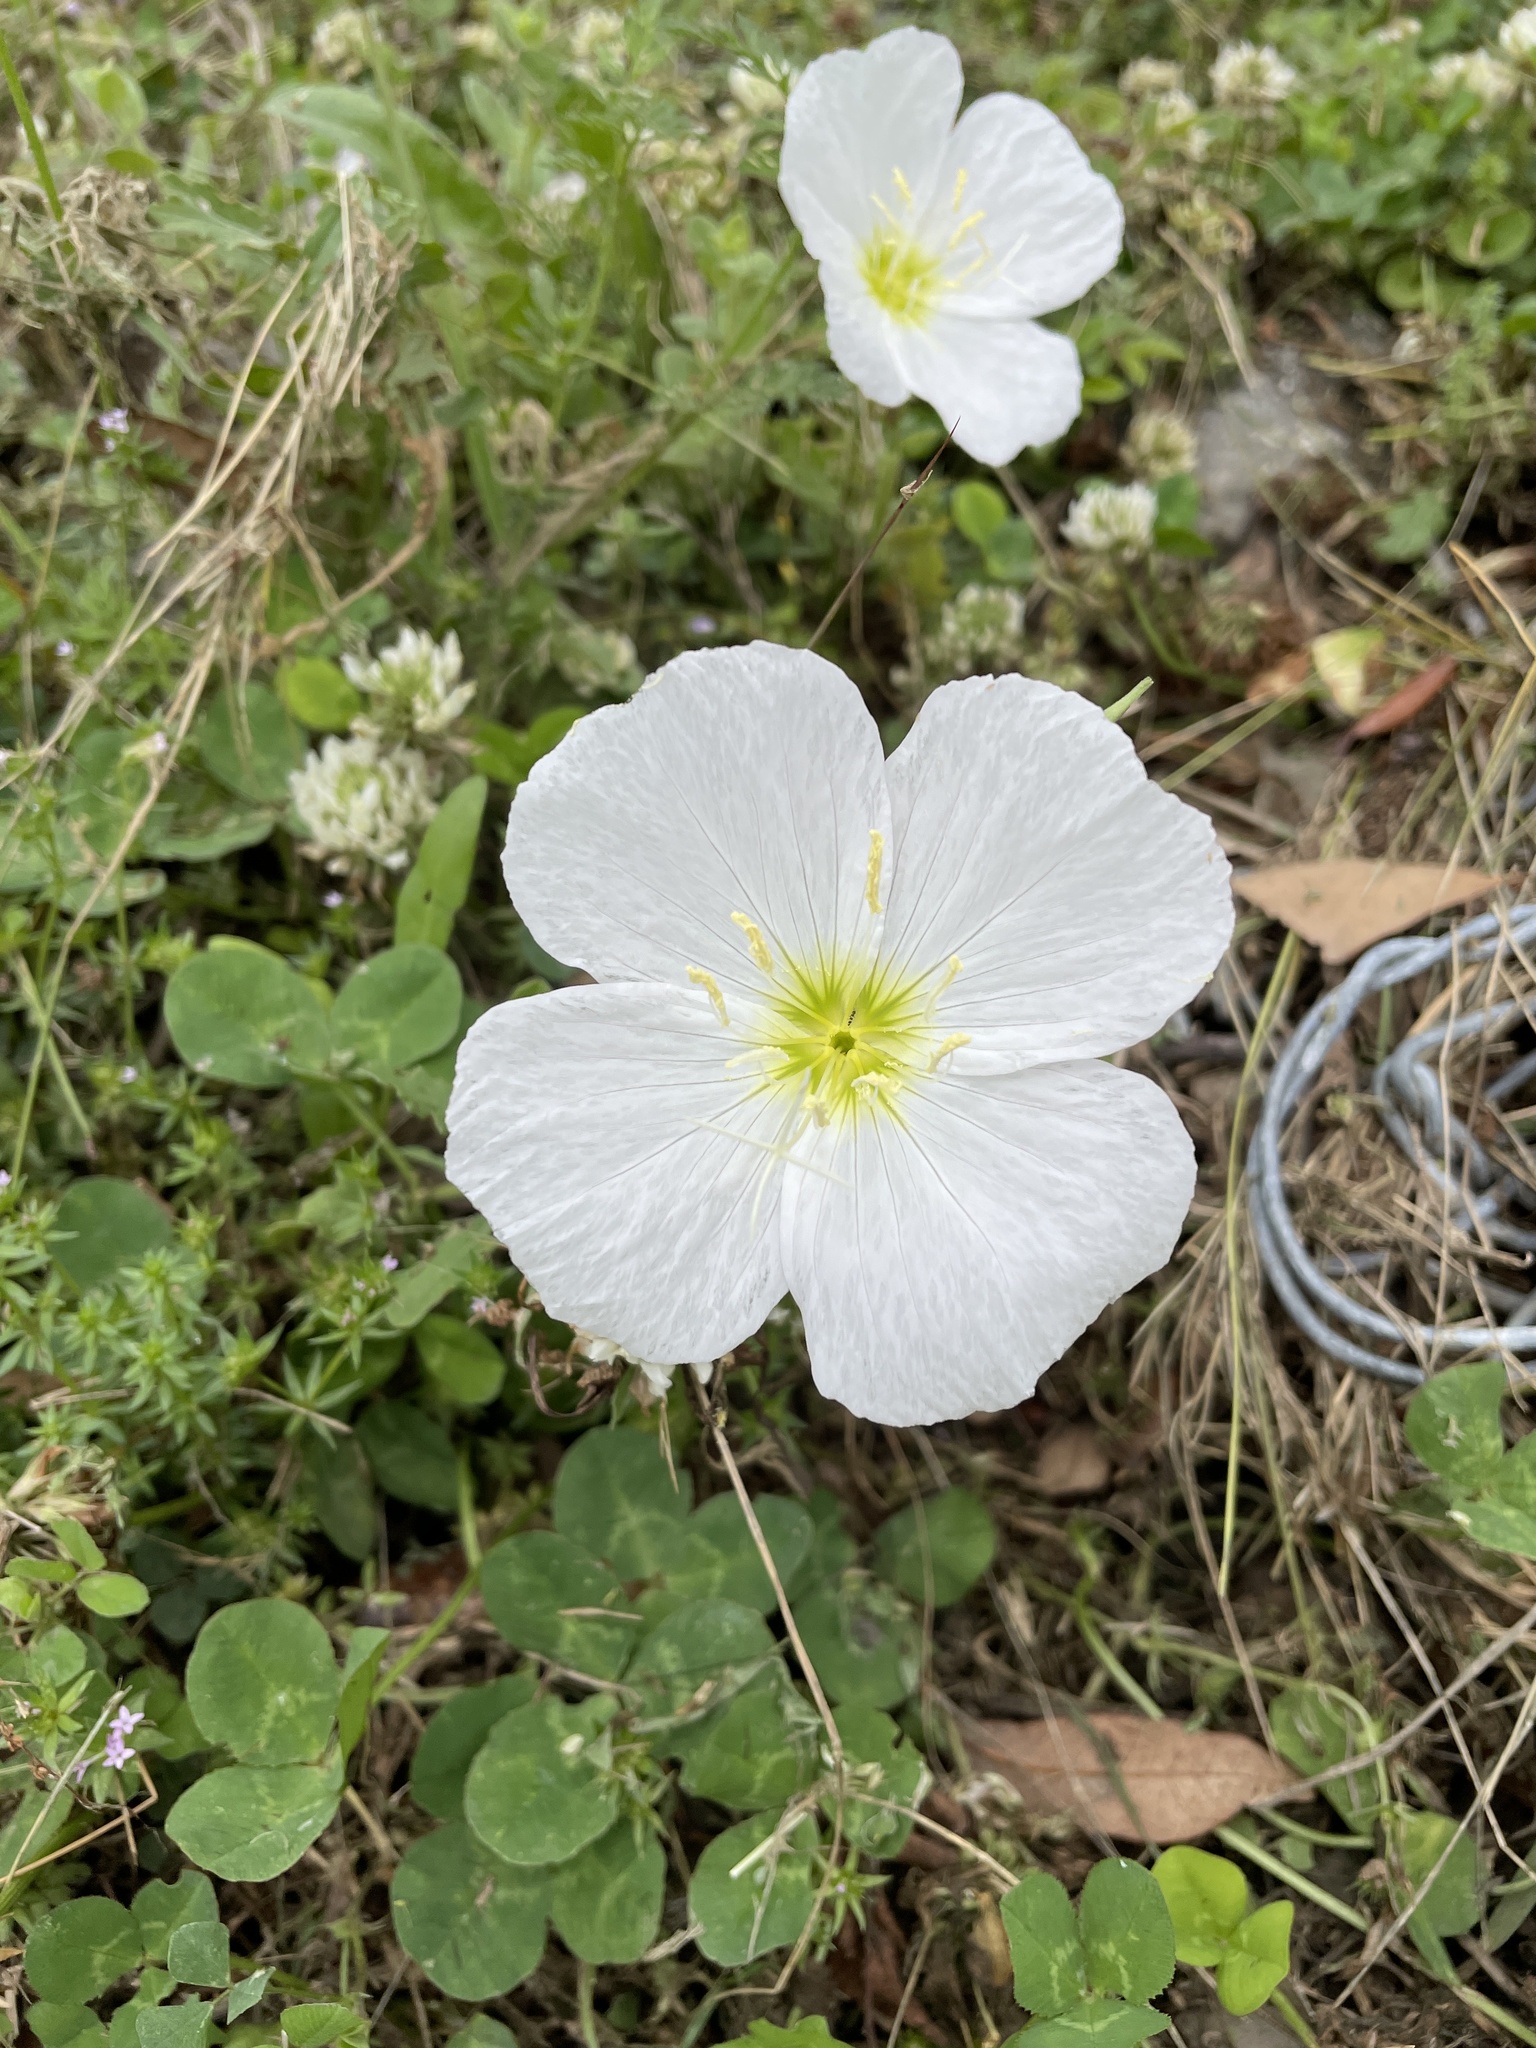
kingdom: Plantae
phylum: Tracheophyta
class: Magnoliopsida
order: Myrtales
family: Onagraceae
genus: Oenothera
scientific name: Oenothera speciosa
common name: White evening-primrose
